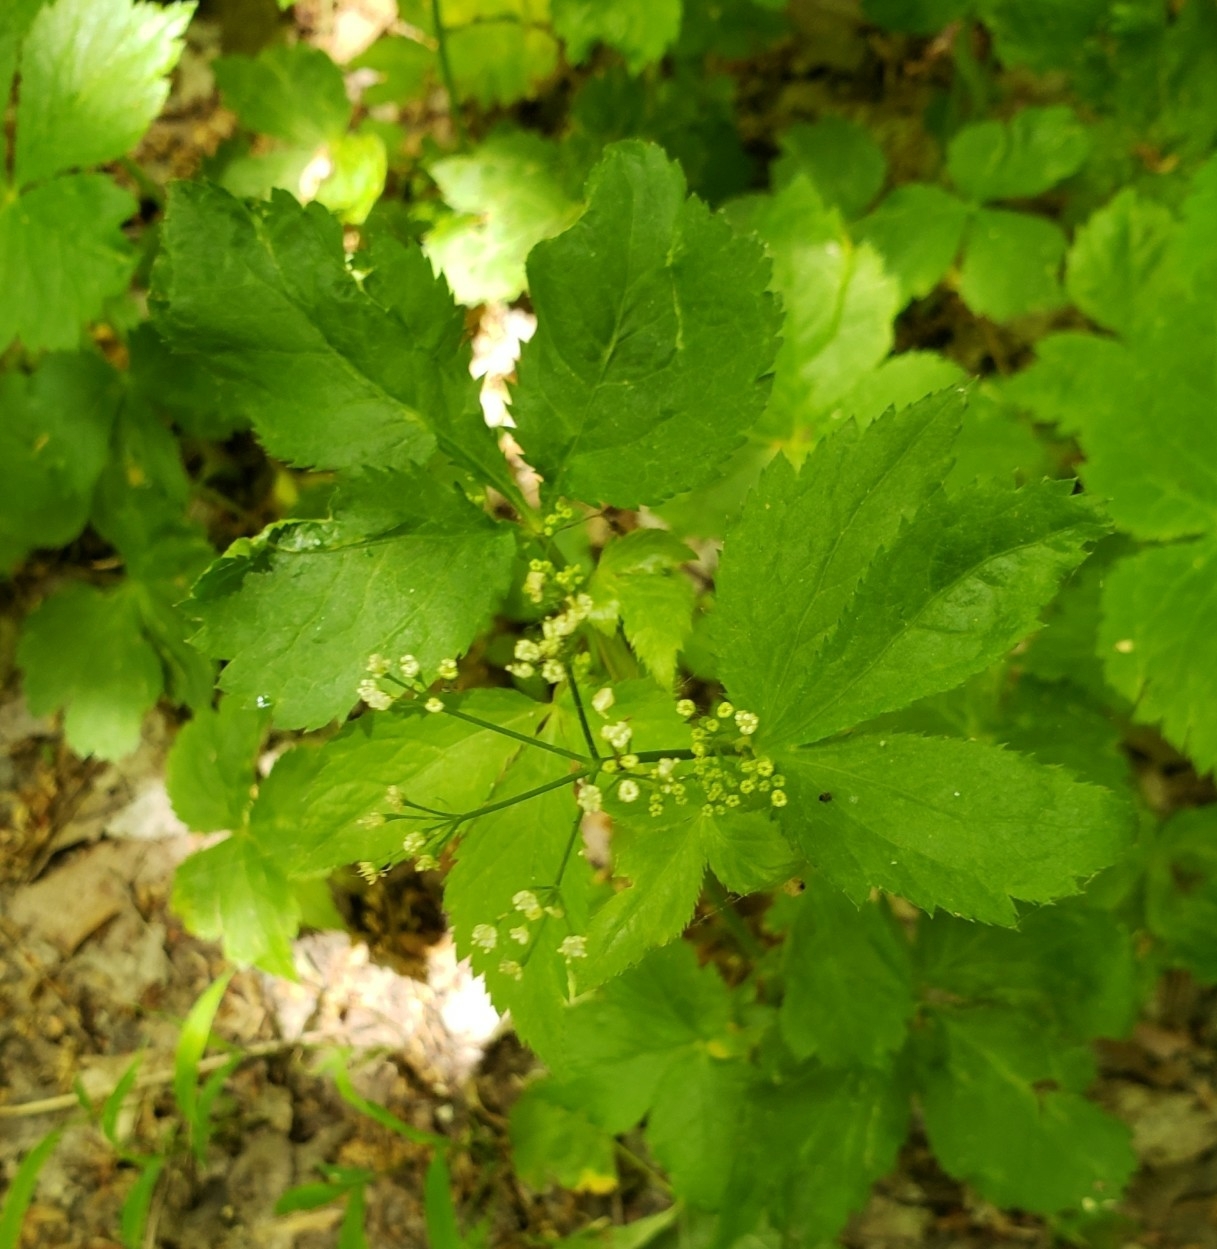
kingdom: Plantae
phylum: Tracheophyta
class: Magnoliopsida
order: Apiales
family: Apiaceae
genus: Cryptotaenia
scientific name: Cryptotaenia canadensis
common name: Honewort
